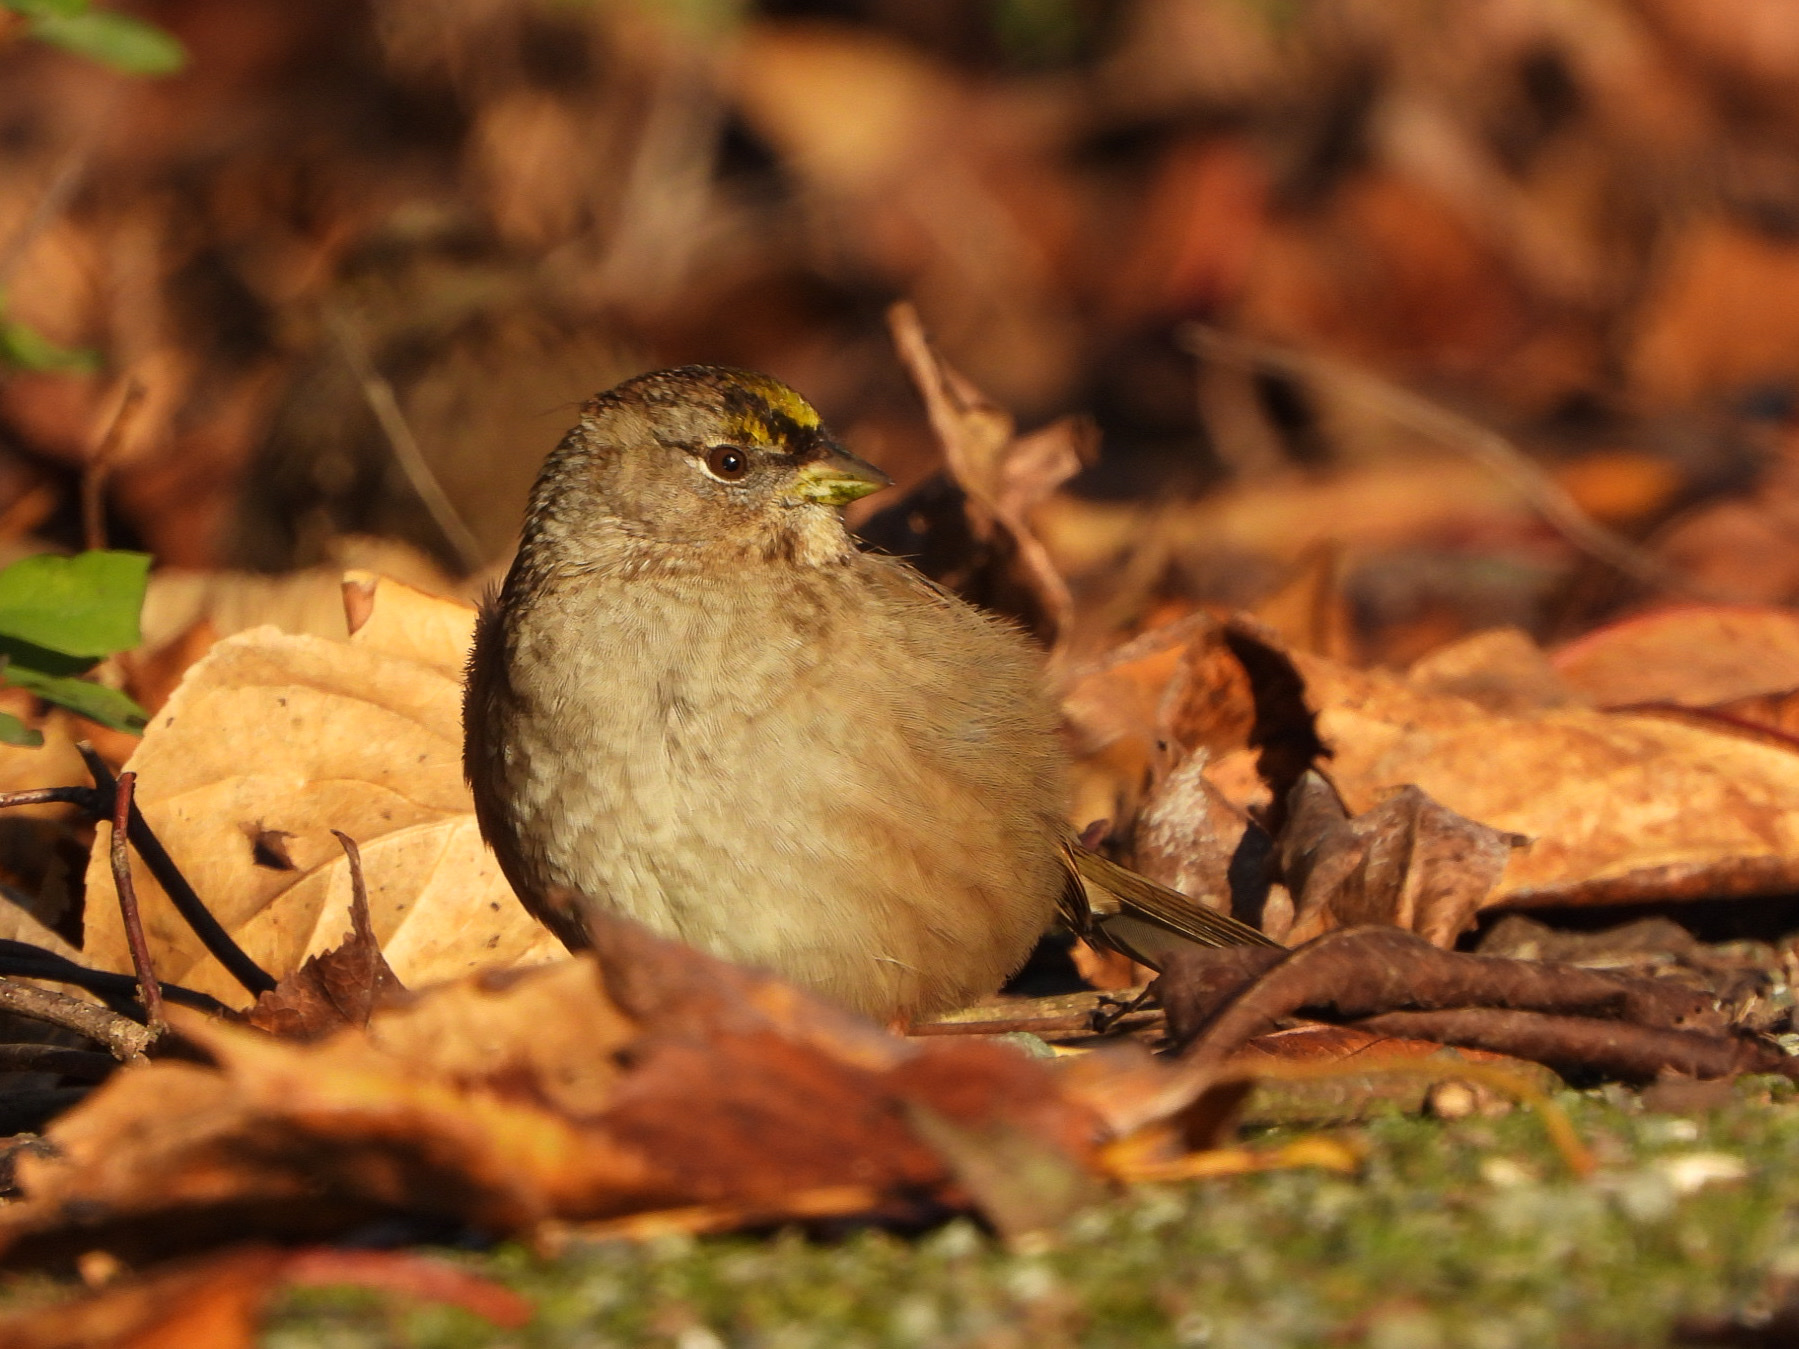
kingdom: Animalia
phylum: Chordata
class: Aves
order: Passeriformes
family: Passerellidae
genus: Zonotrichia
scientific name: Zonotrichia atricapilla
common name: Golden-crowned sparrow
